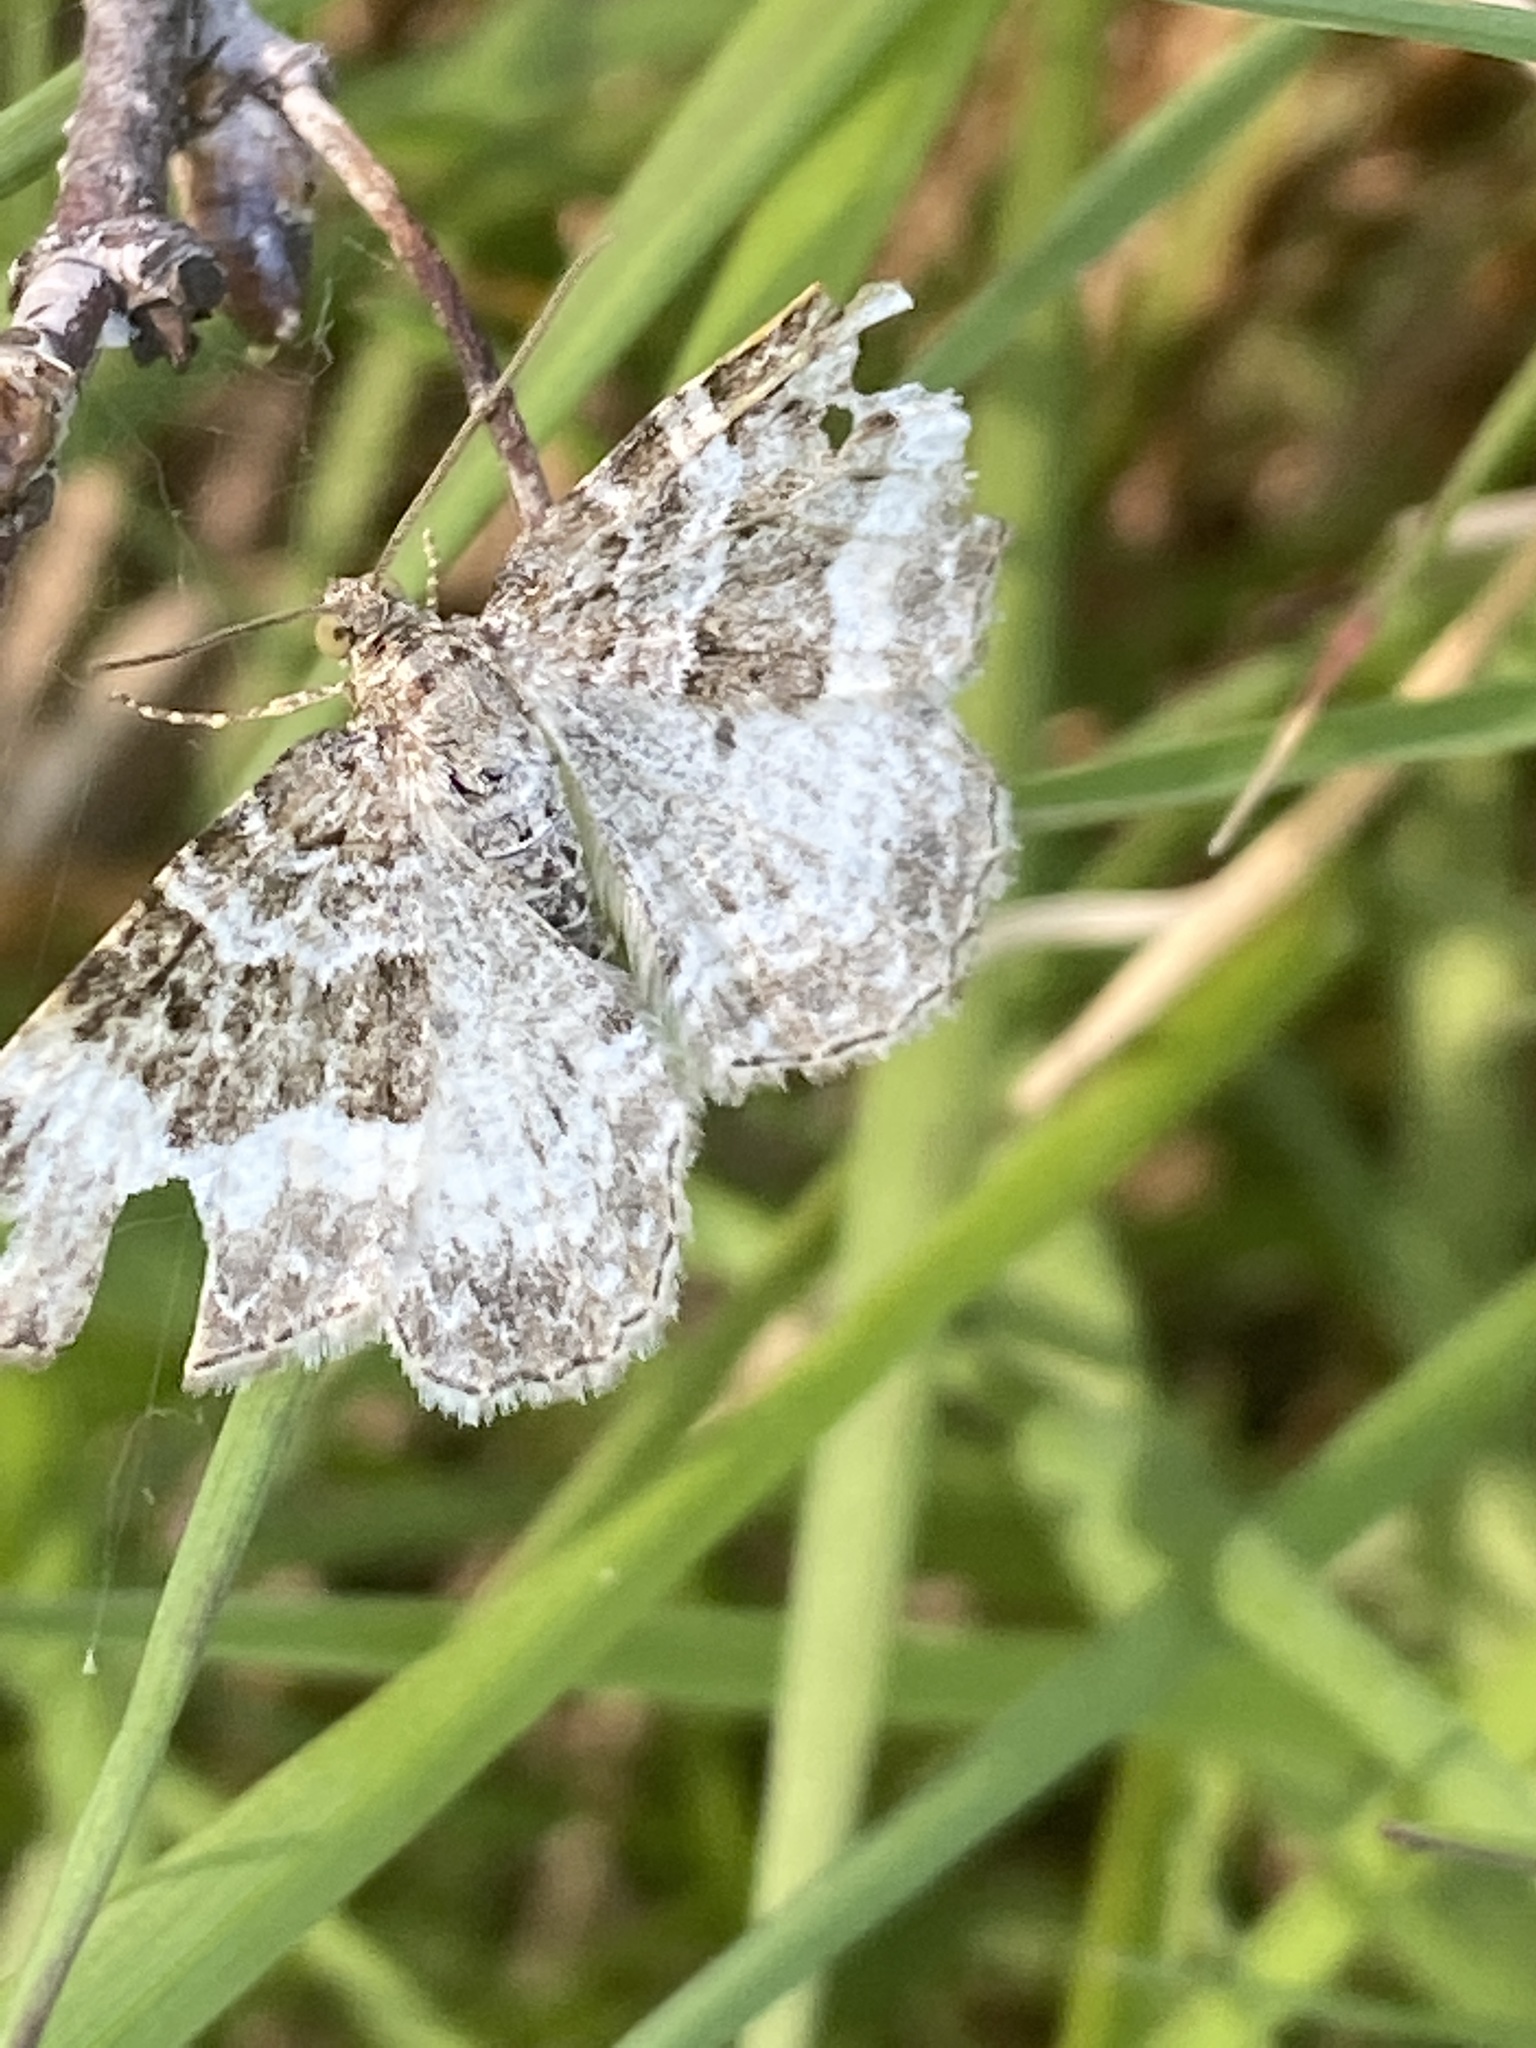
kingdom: Animalia
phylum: Arthropoda
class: Insecta
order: Lepidoptera
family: Geometridae
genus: Epirrhoe
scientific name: Epirrhoe alternata
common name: Common carpet
